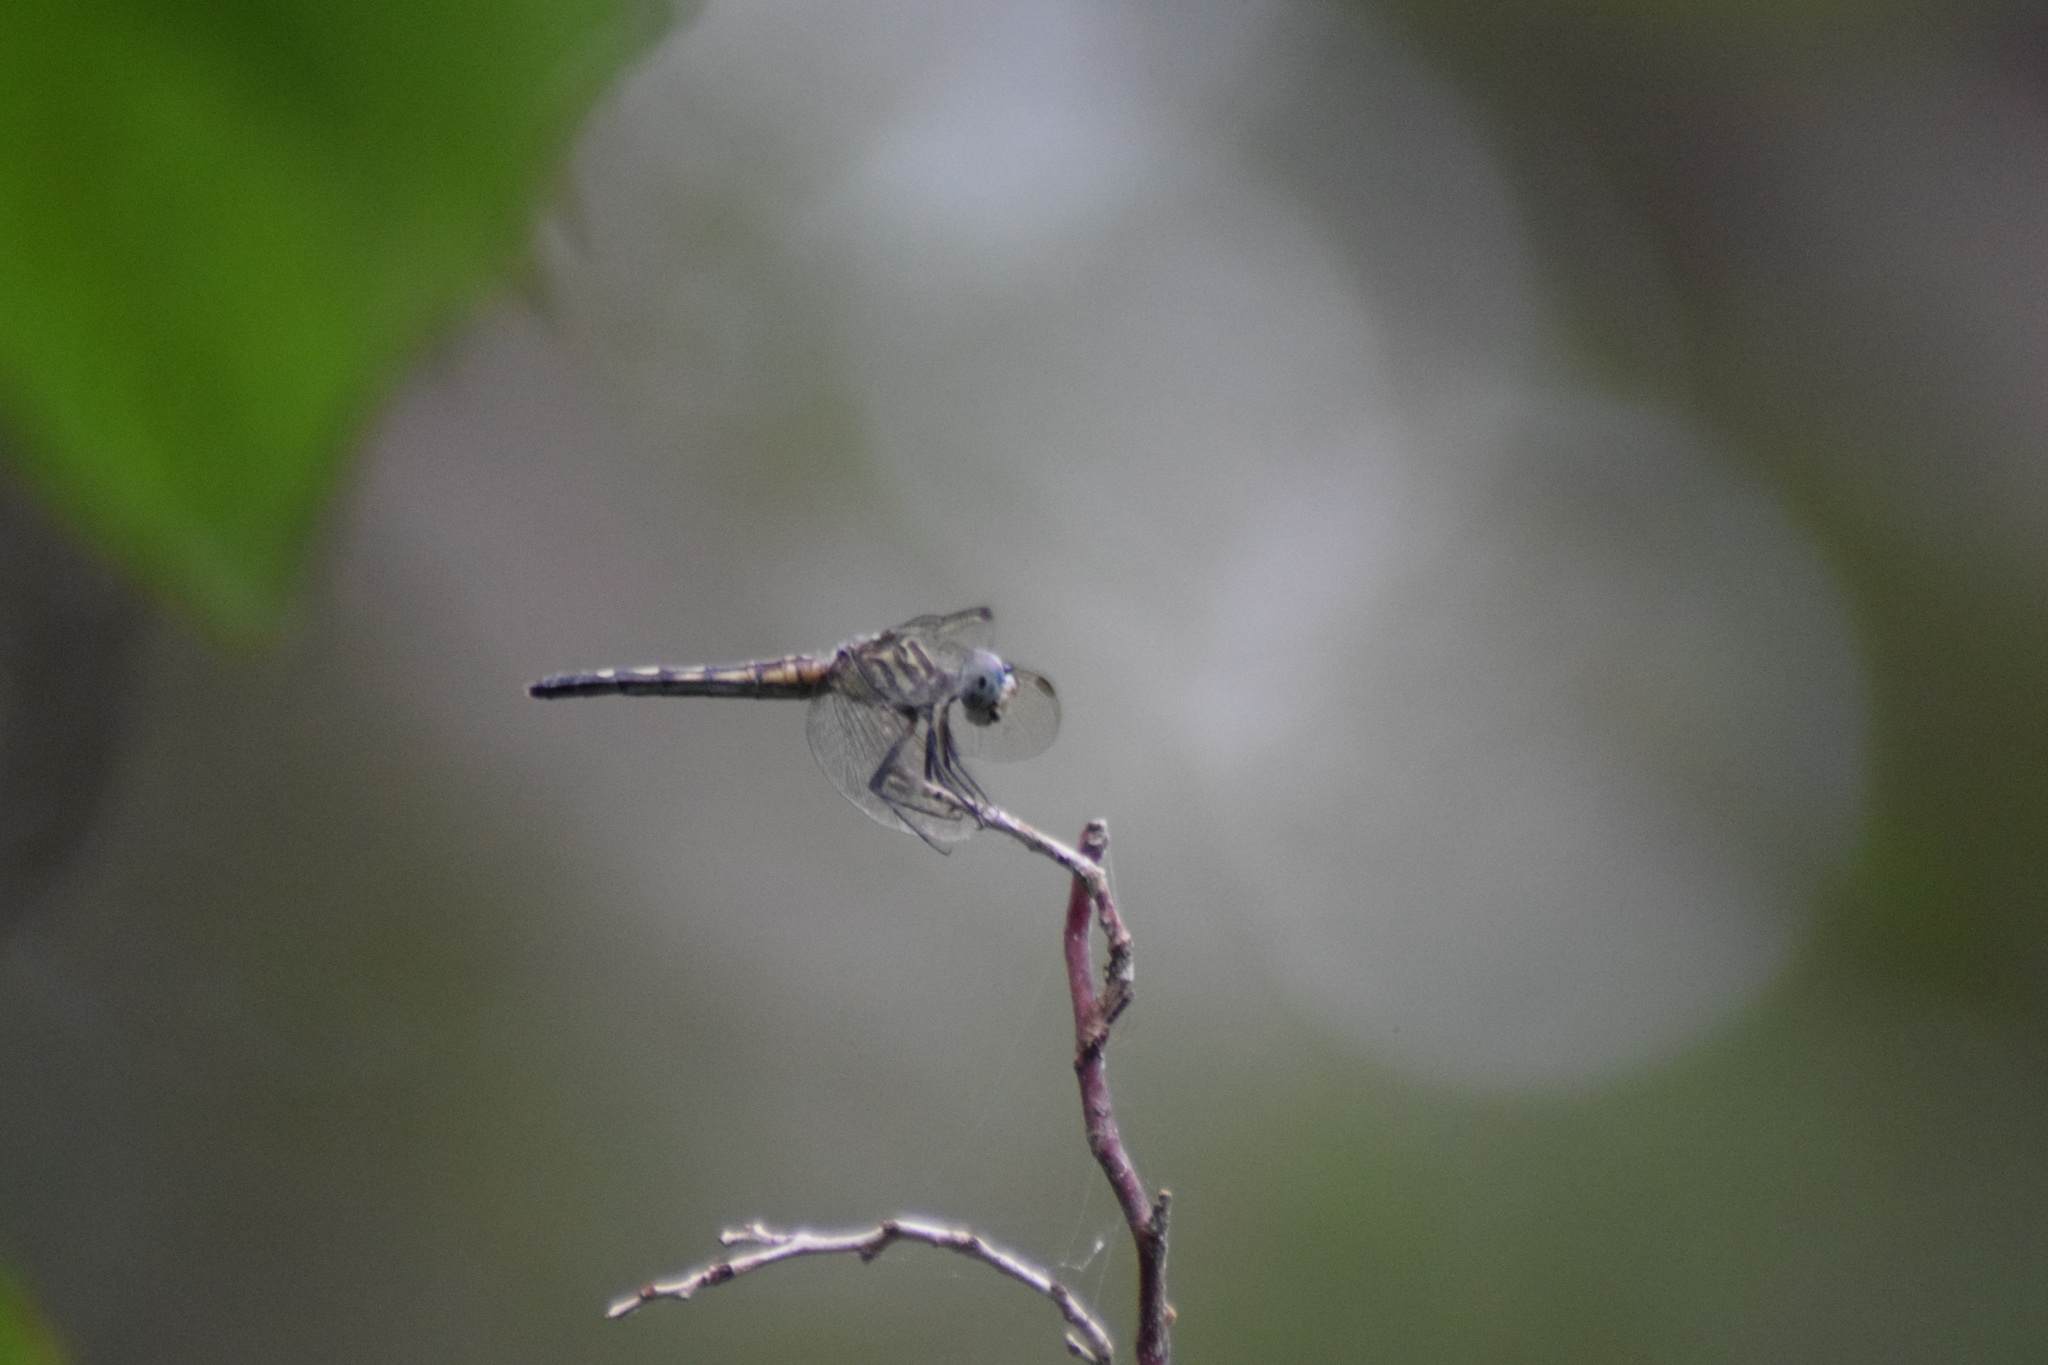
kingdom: Animalia
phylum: Arthropoda
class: Insecta
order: Odonata
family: Libellulidae
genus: Pachydiplax
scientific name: Pachydiplax longipennis
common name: Blue dasher
